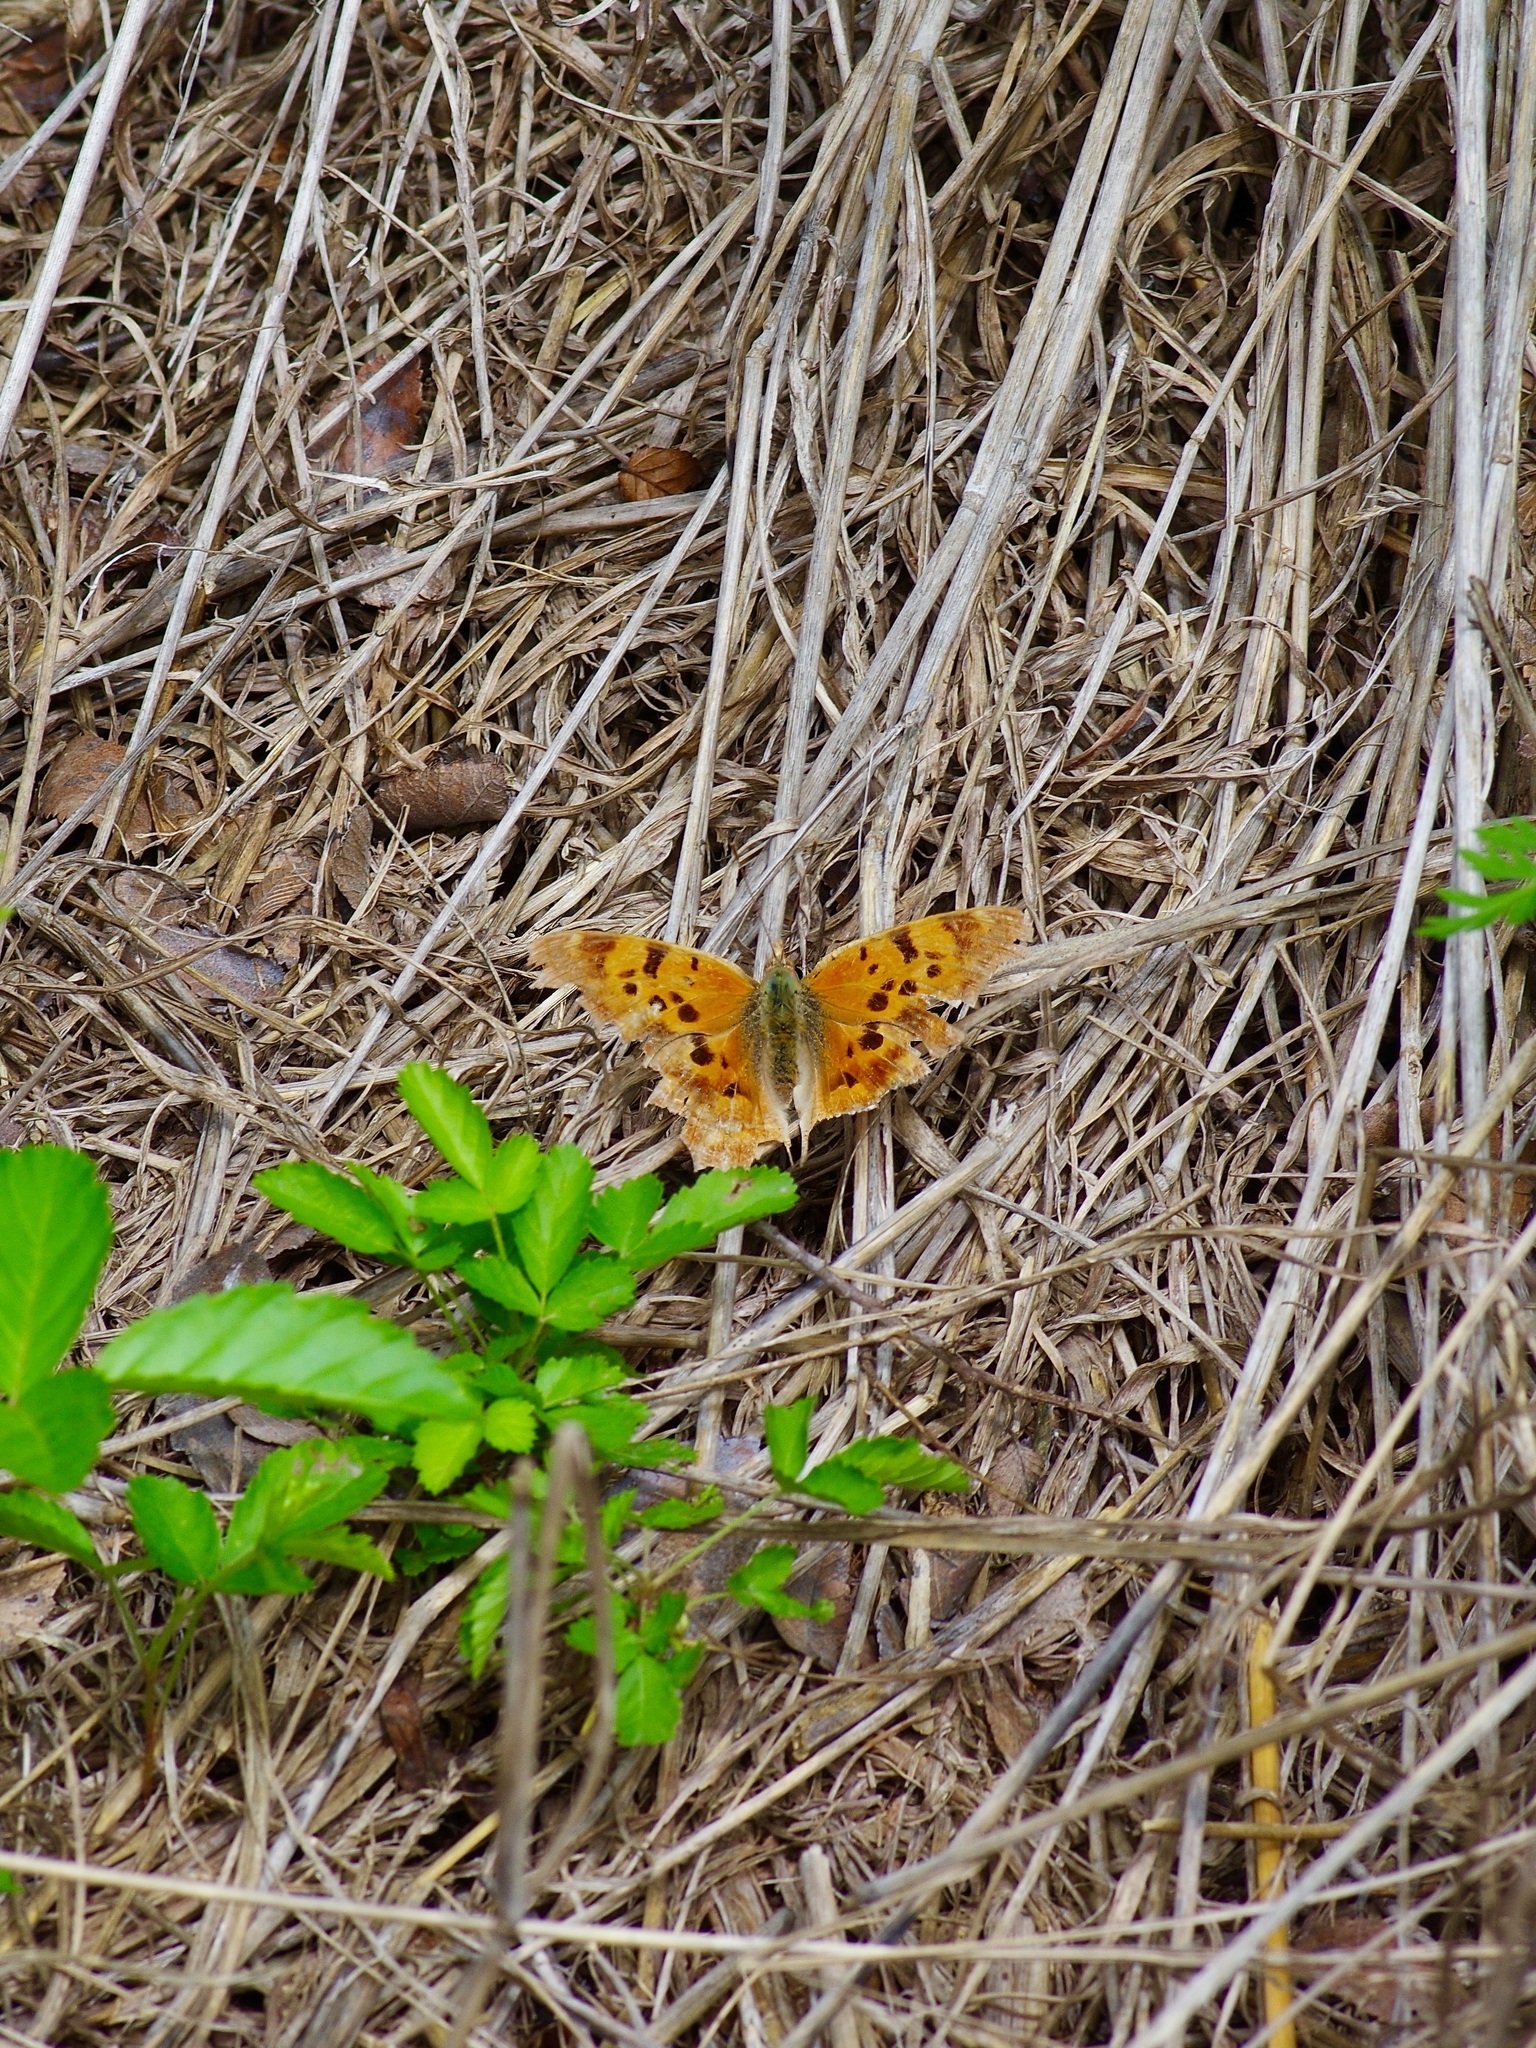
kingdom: Animalia
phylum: Arthropoda
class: Insecta
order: Lepidoptera
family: Nymphalidae
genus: Polygonia
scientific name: Polygonia interrogationis
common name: Question mark
